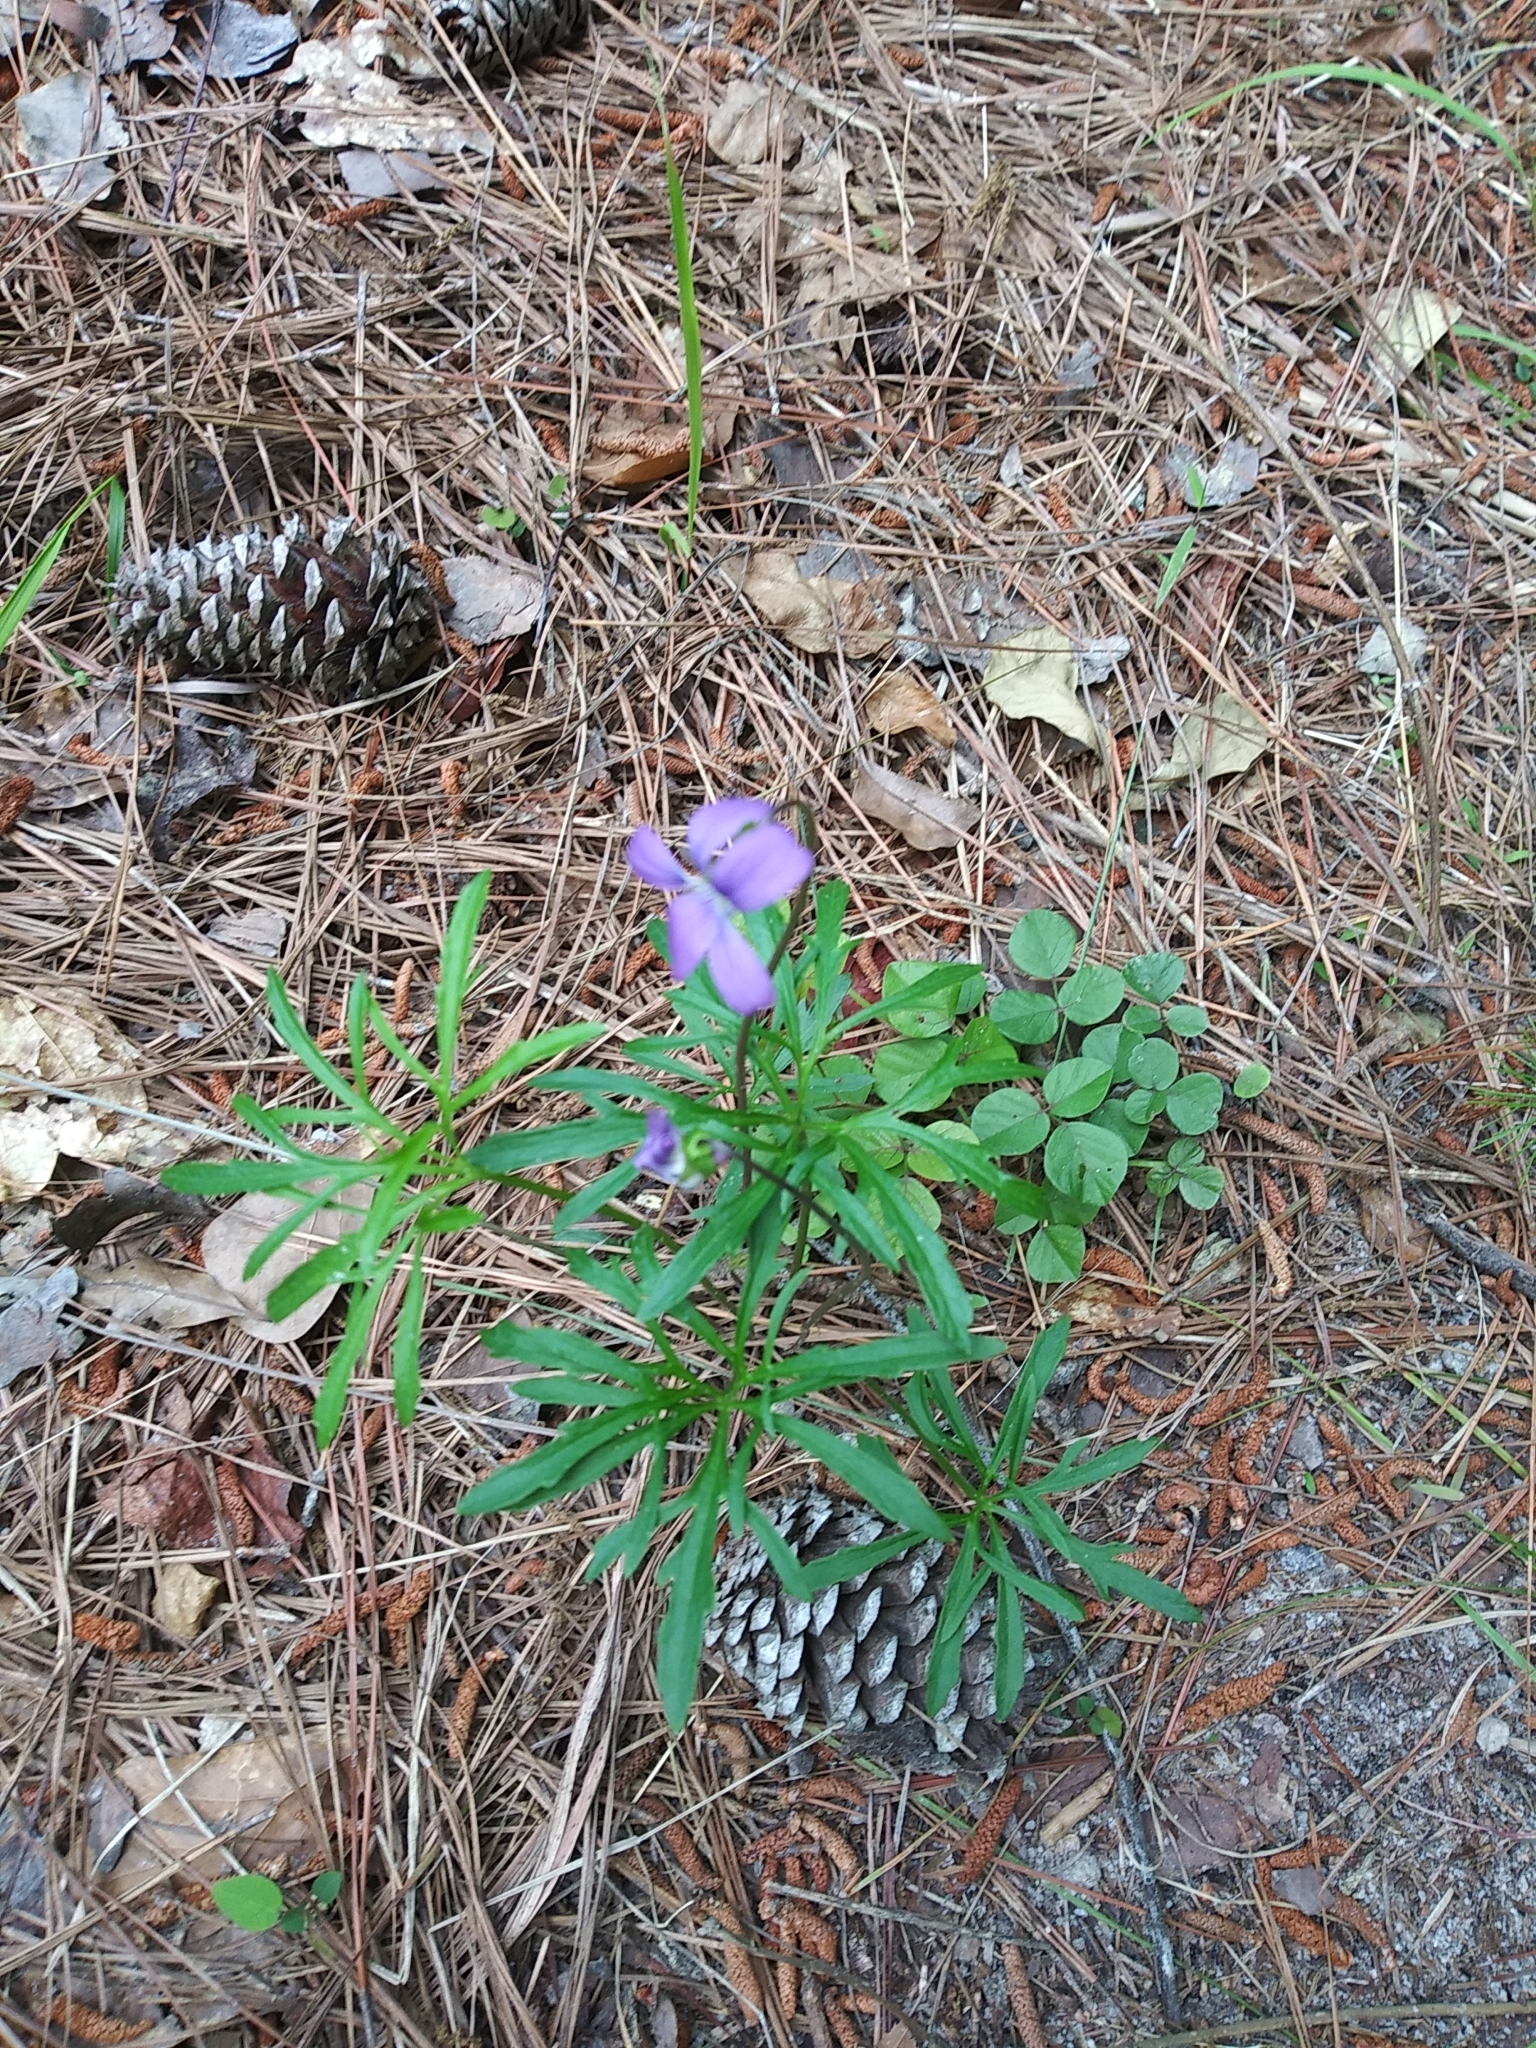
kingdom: Plantae
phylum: Tracheophyta
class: Magnoliopsida
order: Malpighiales
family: Violaceae
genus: Viola
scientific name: Viola pedata
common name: Pansy violet
